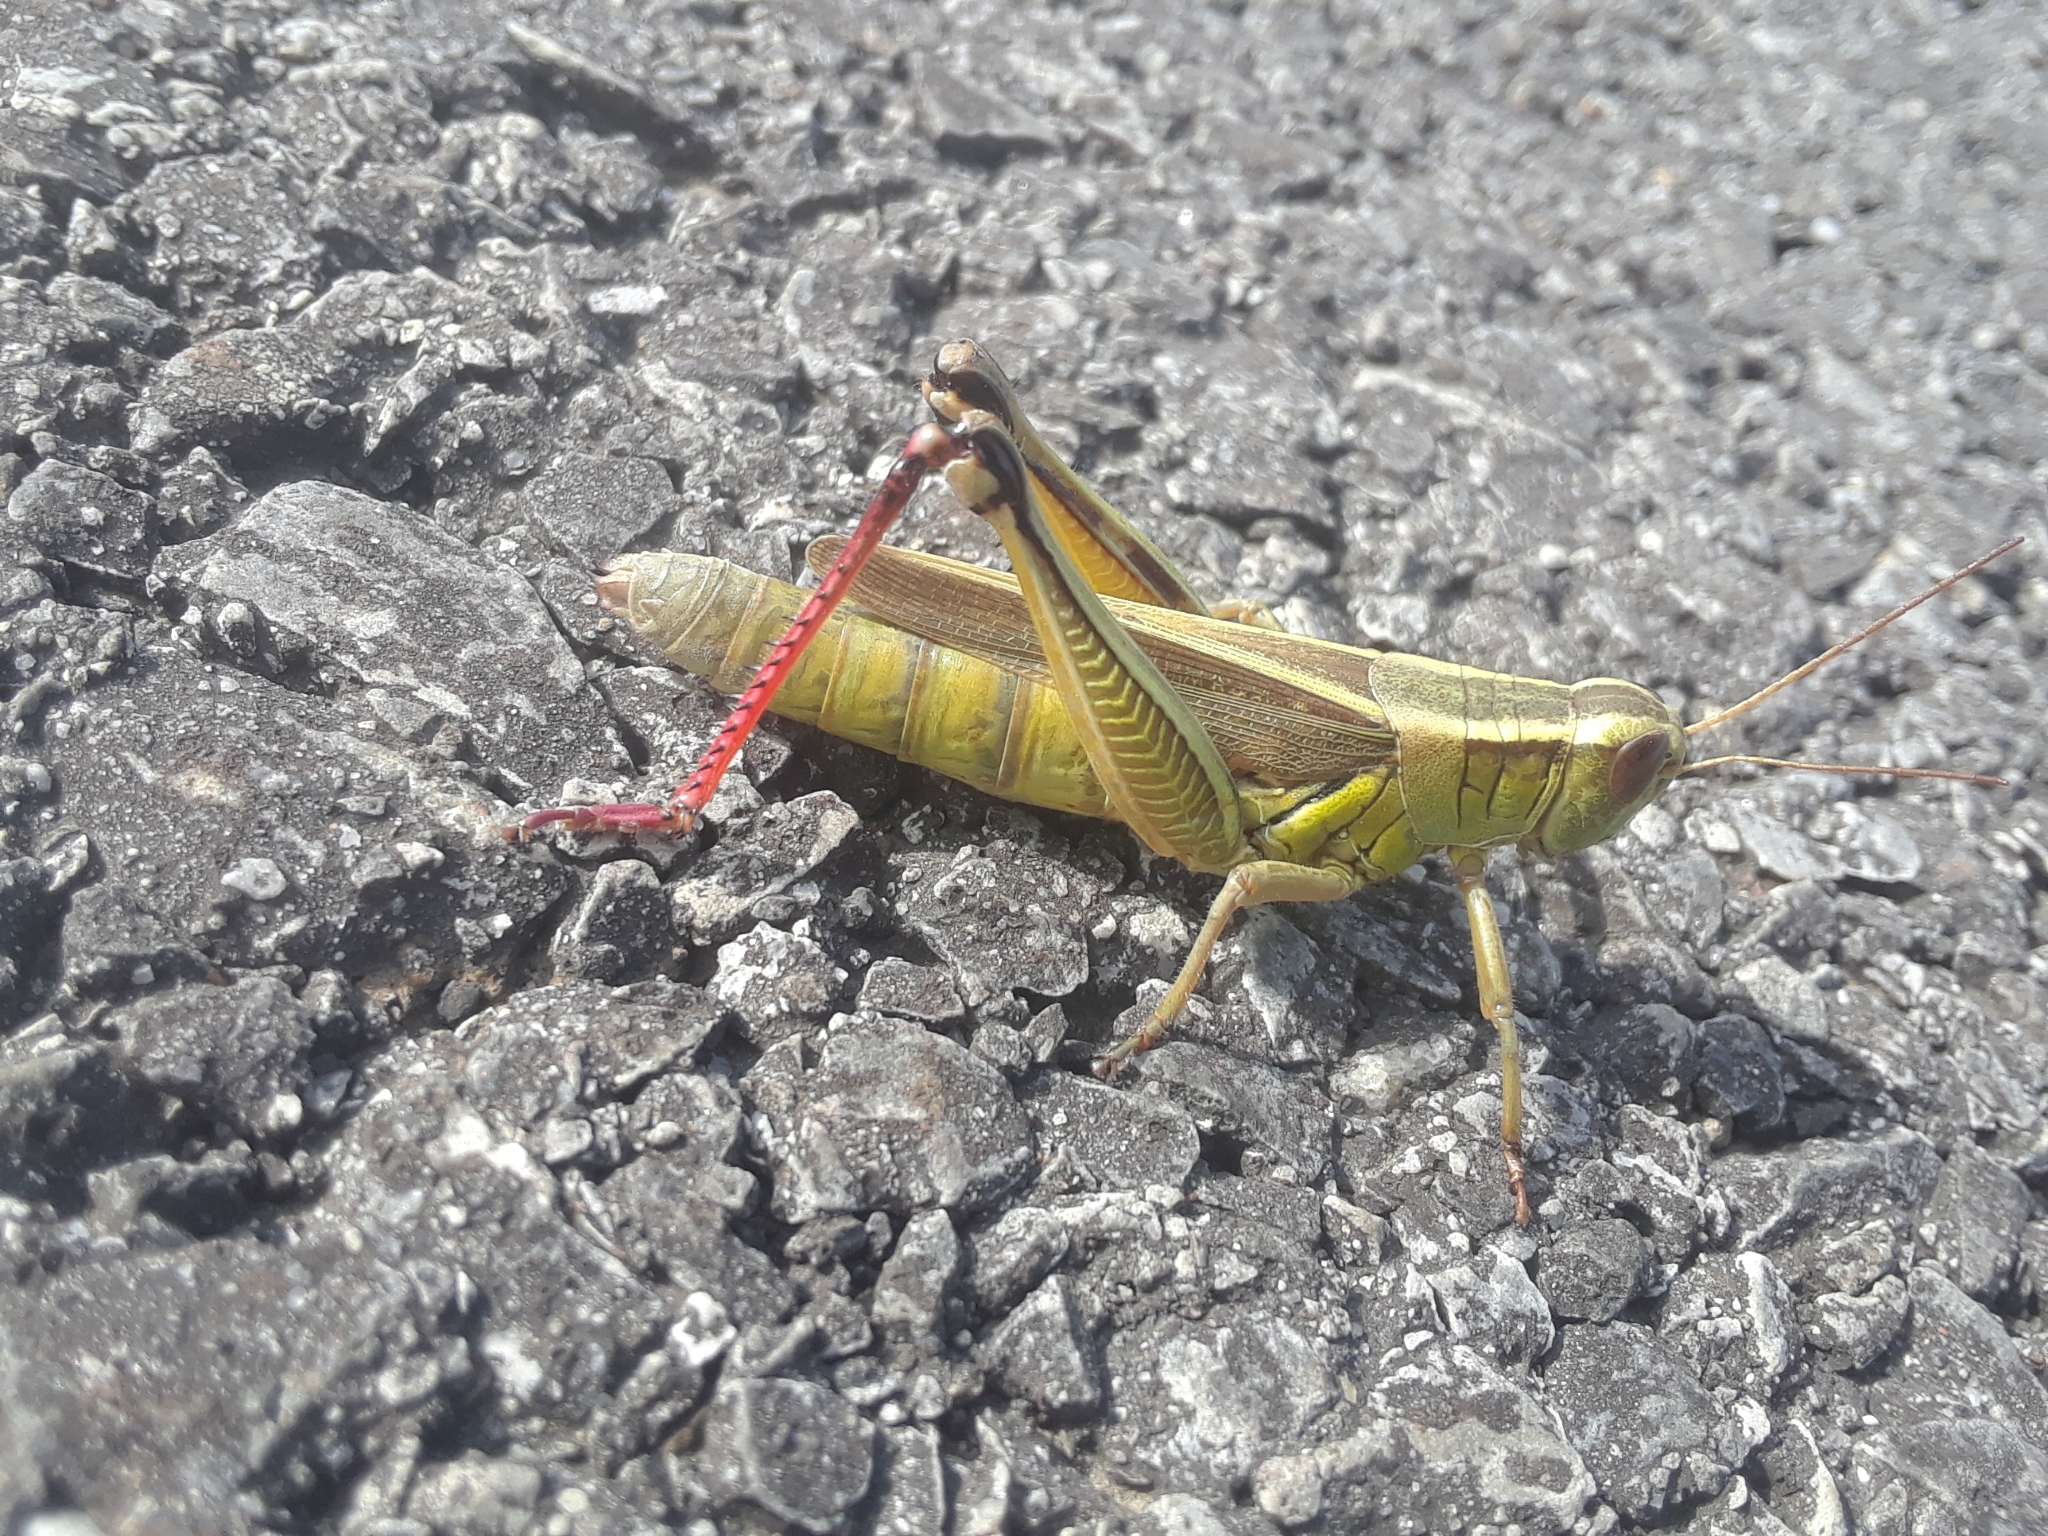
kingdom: Animalia
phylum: Arthropoda
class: Insecta
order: Orthoptera
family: Acrididae
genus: Melanoplus
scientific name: Melanoplus bivittatus
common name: Two-striped grasshopper
